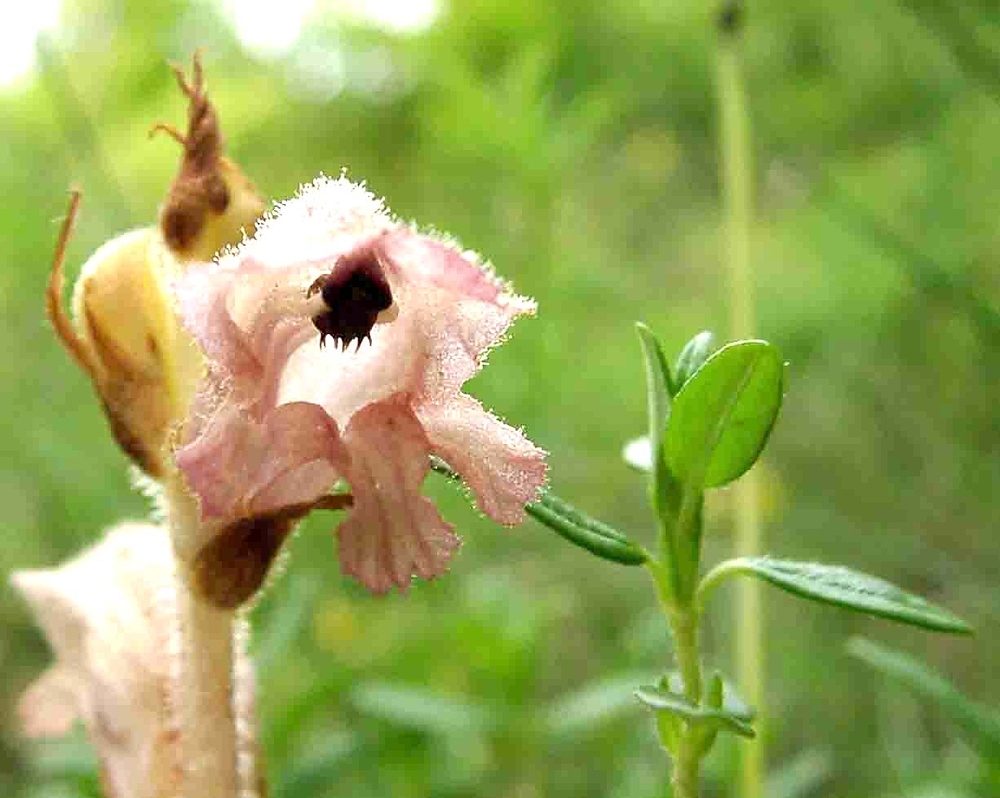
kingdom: Plantae
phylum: Tracheophyta
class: Magnoliopsida
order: Lamiales
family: Orobanchaceae
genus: Orobanche
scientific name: Orobanche teucrii
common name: Germander broomrape
